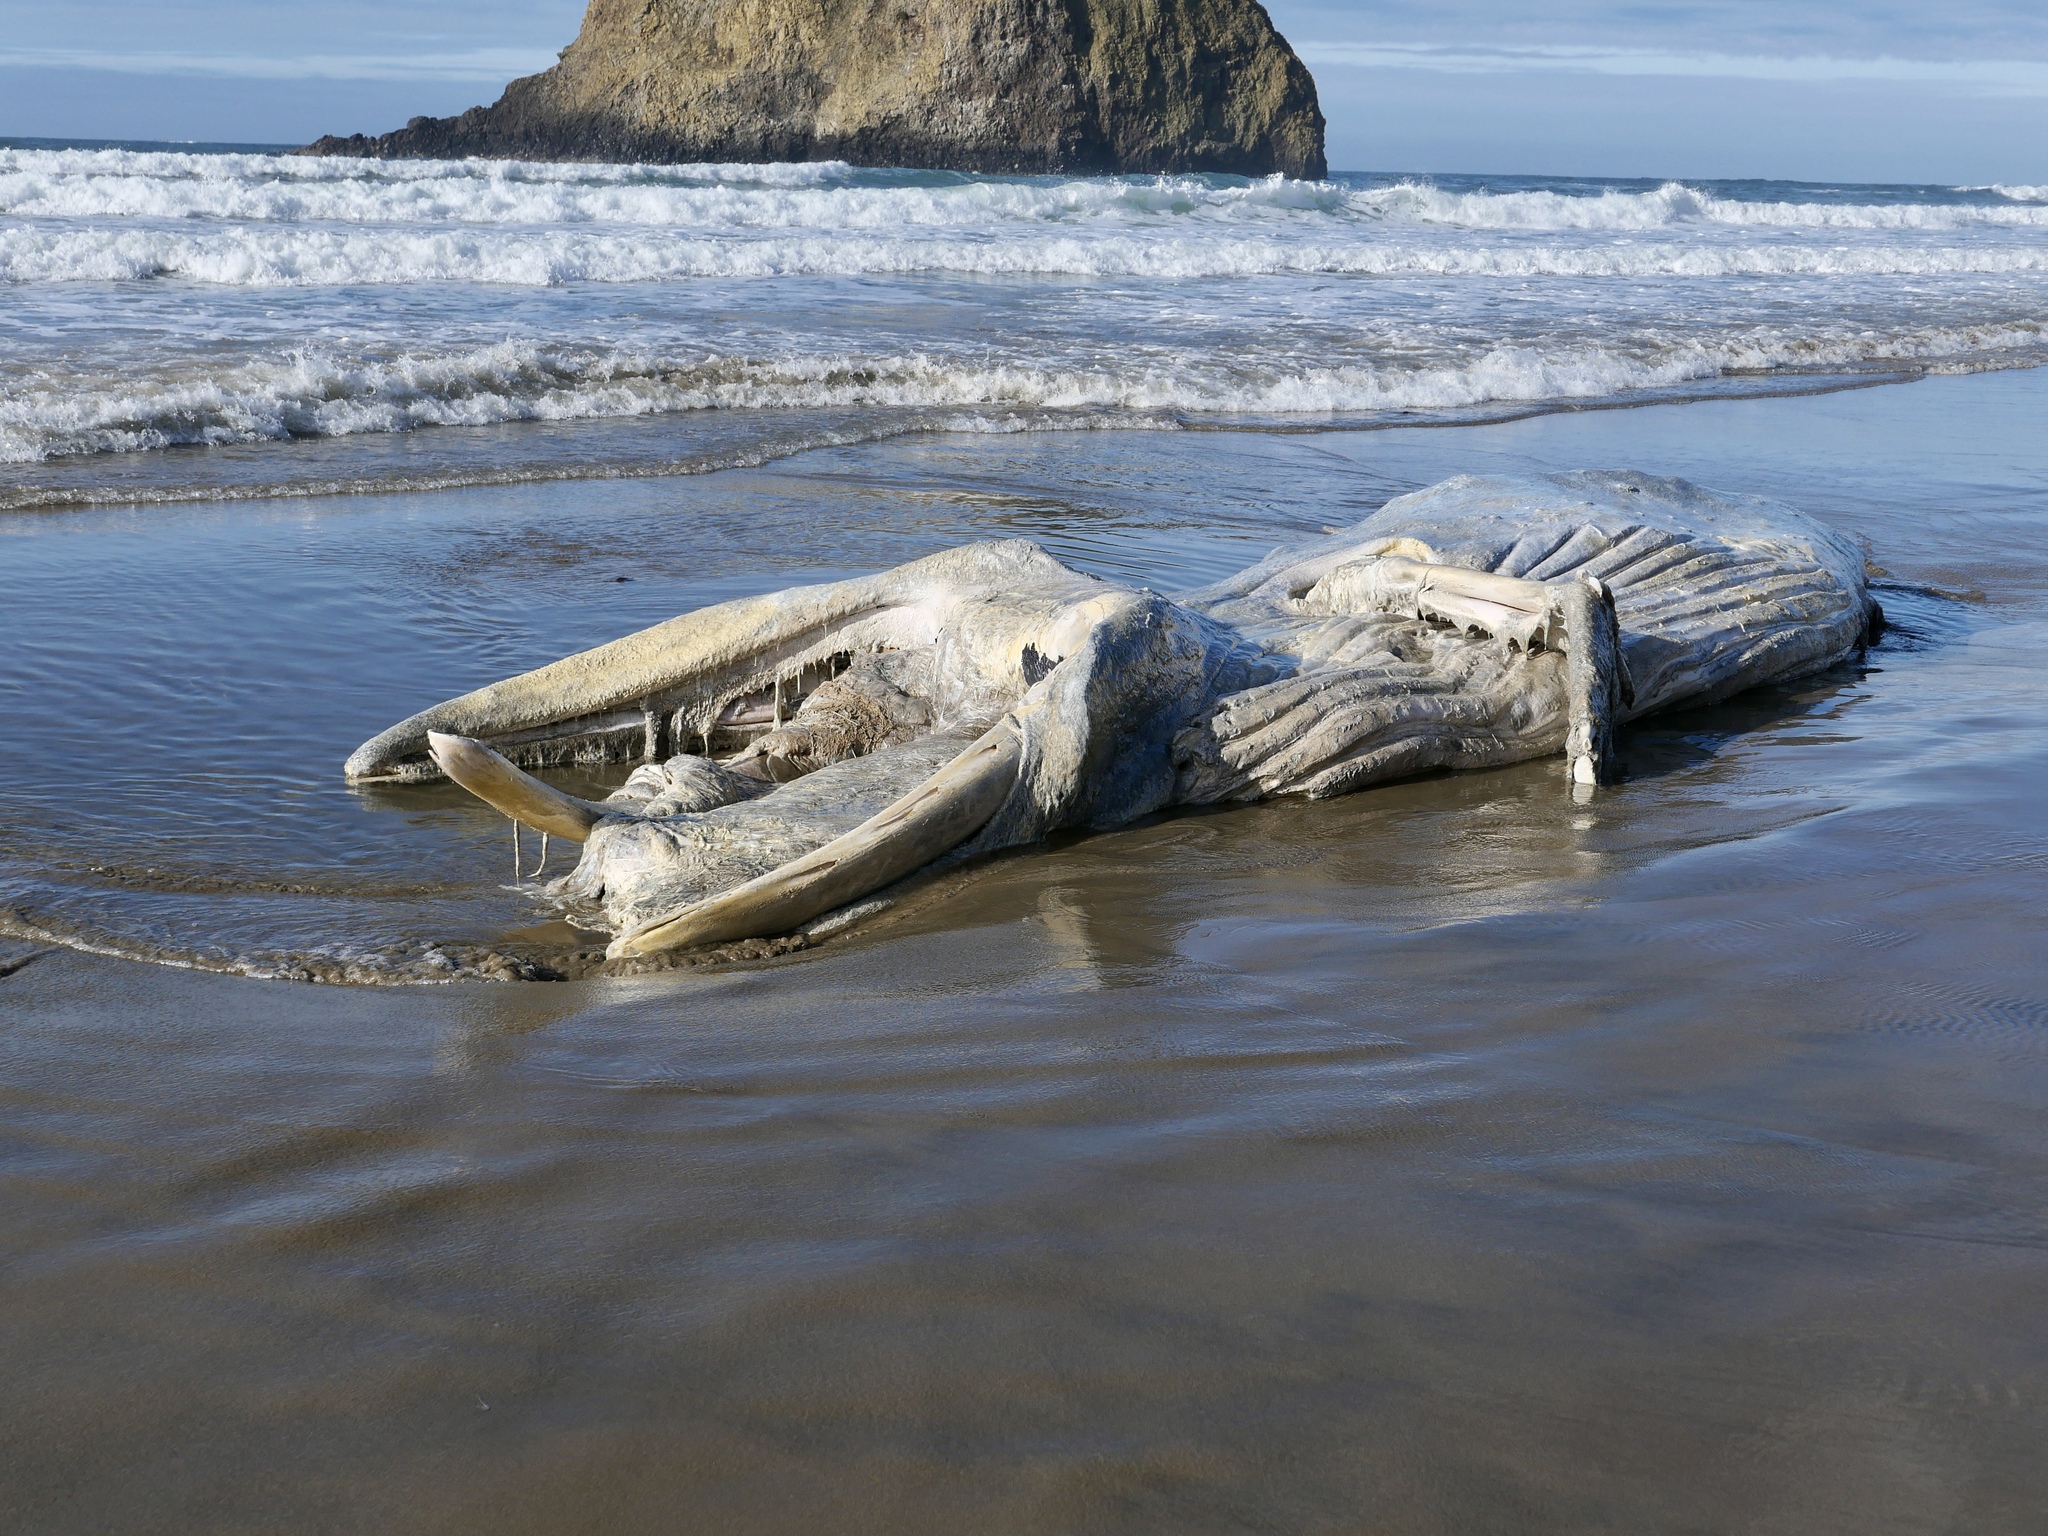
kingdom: Animalia
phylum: Chordata
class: Mammalia
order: Cetacea
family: Balaenopteridae
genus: Megaptera
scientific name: Megaptera novaeangliae
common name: Humpback whale
